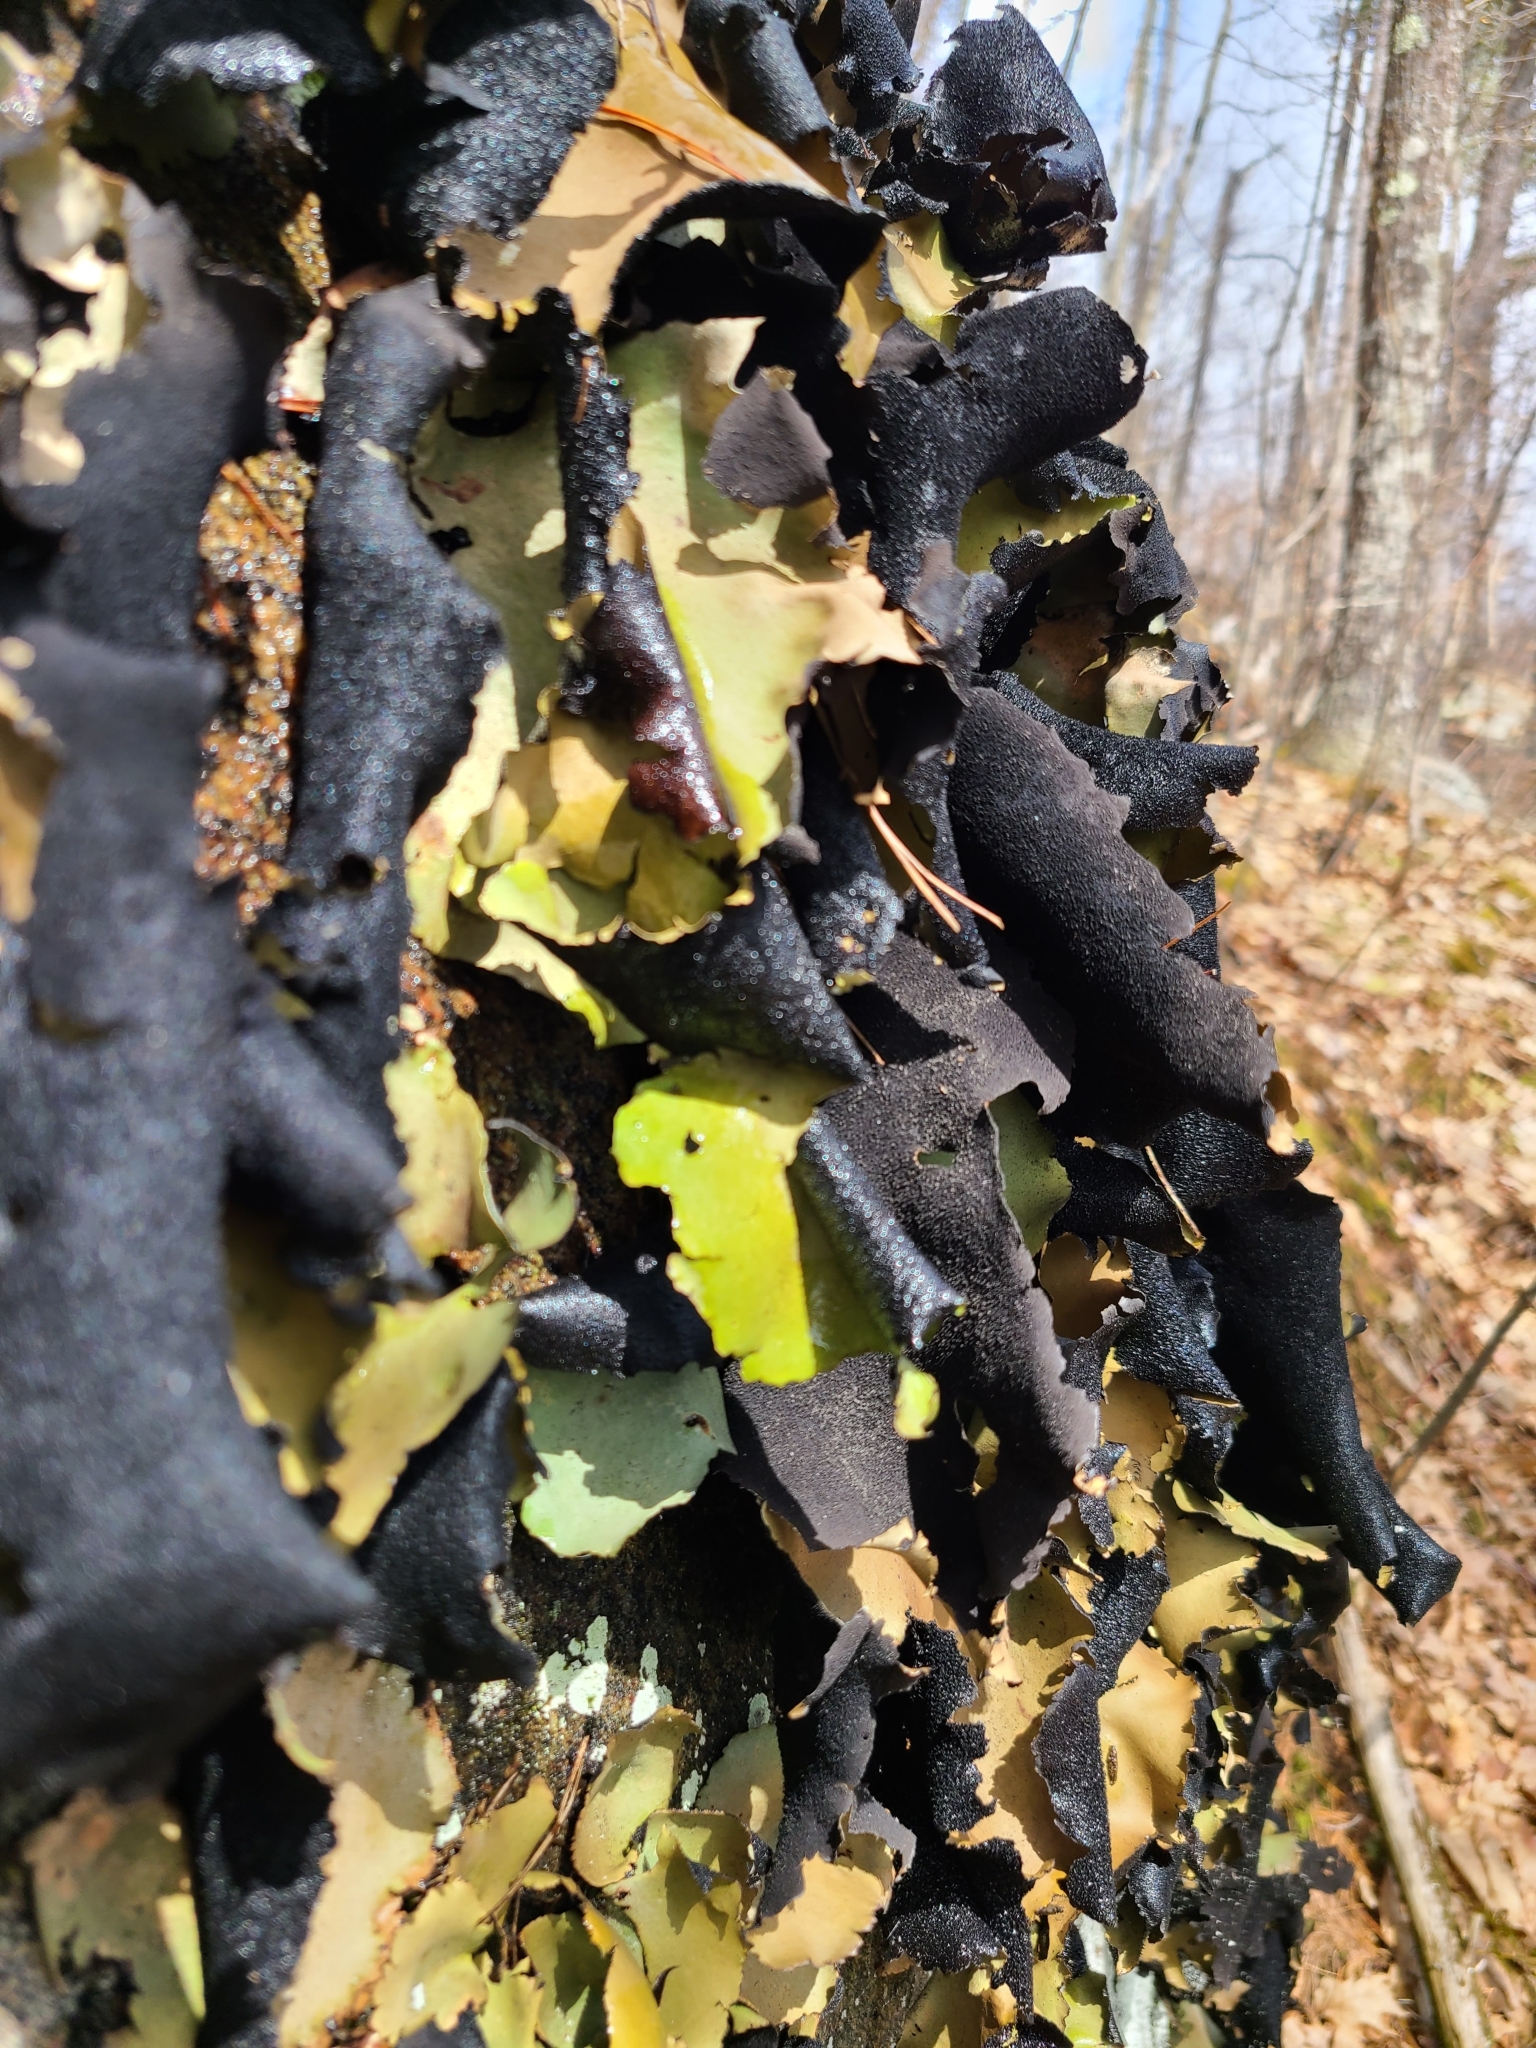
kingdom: Fungi
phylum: Ascomycota
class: Lecanoromycetes
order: Umbilicariales
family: Umbilicariaceae
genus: Umbilicaria
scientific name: Umbilicaria mammulata
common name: Smooth rock tripe
